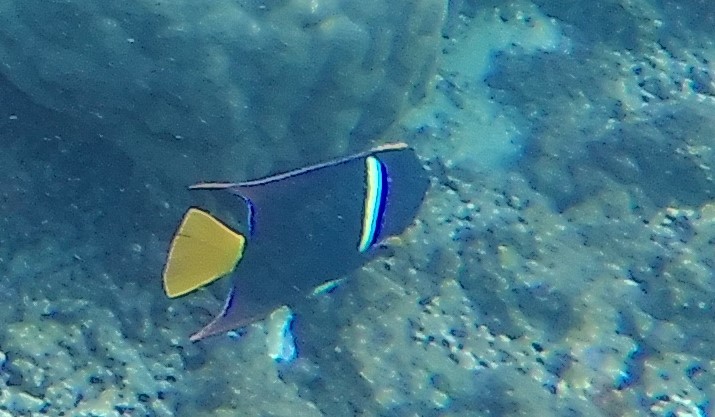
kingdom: Animalia
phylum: Chordata
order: Perciformes
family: Pomacanthidae
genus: Holacanthus
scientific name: Holacanthus passer
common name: King angelfish
